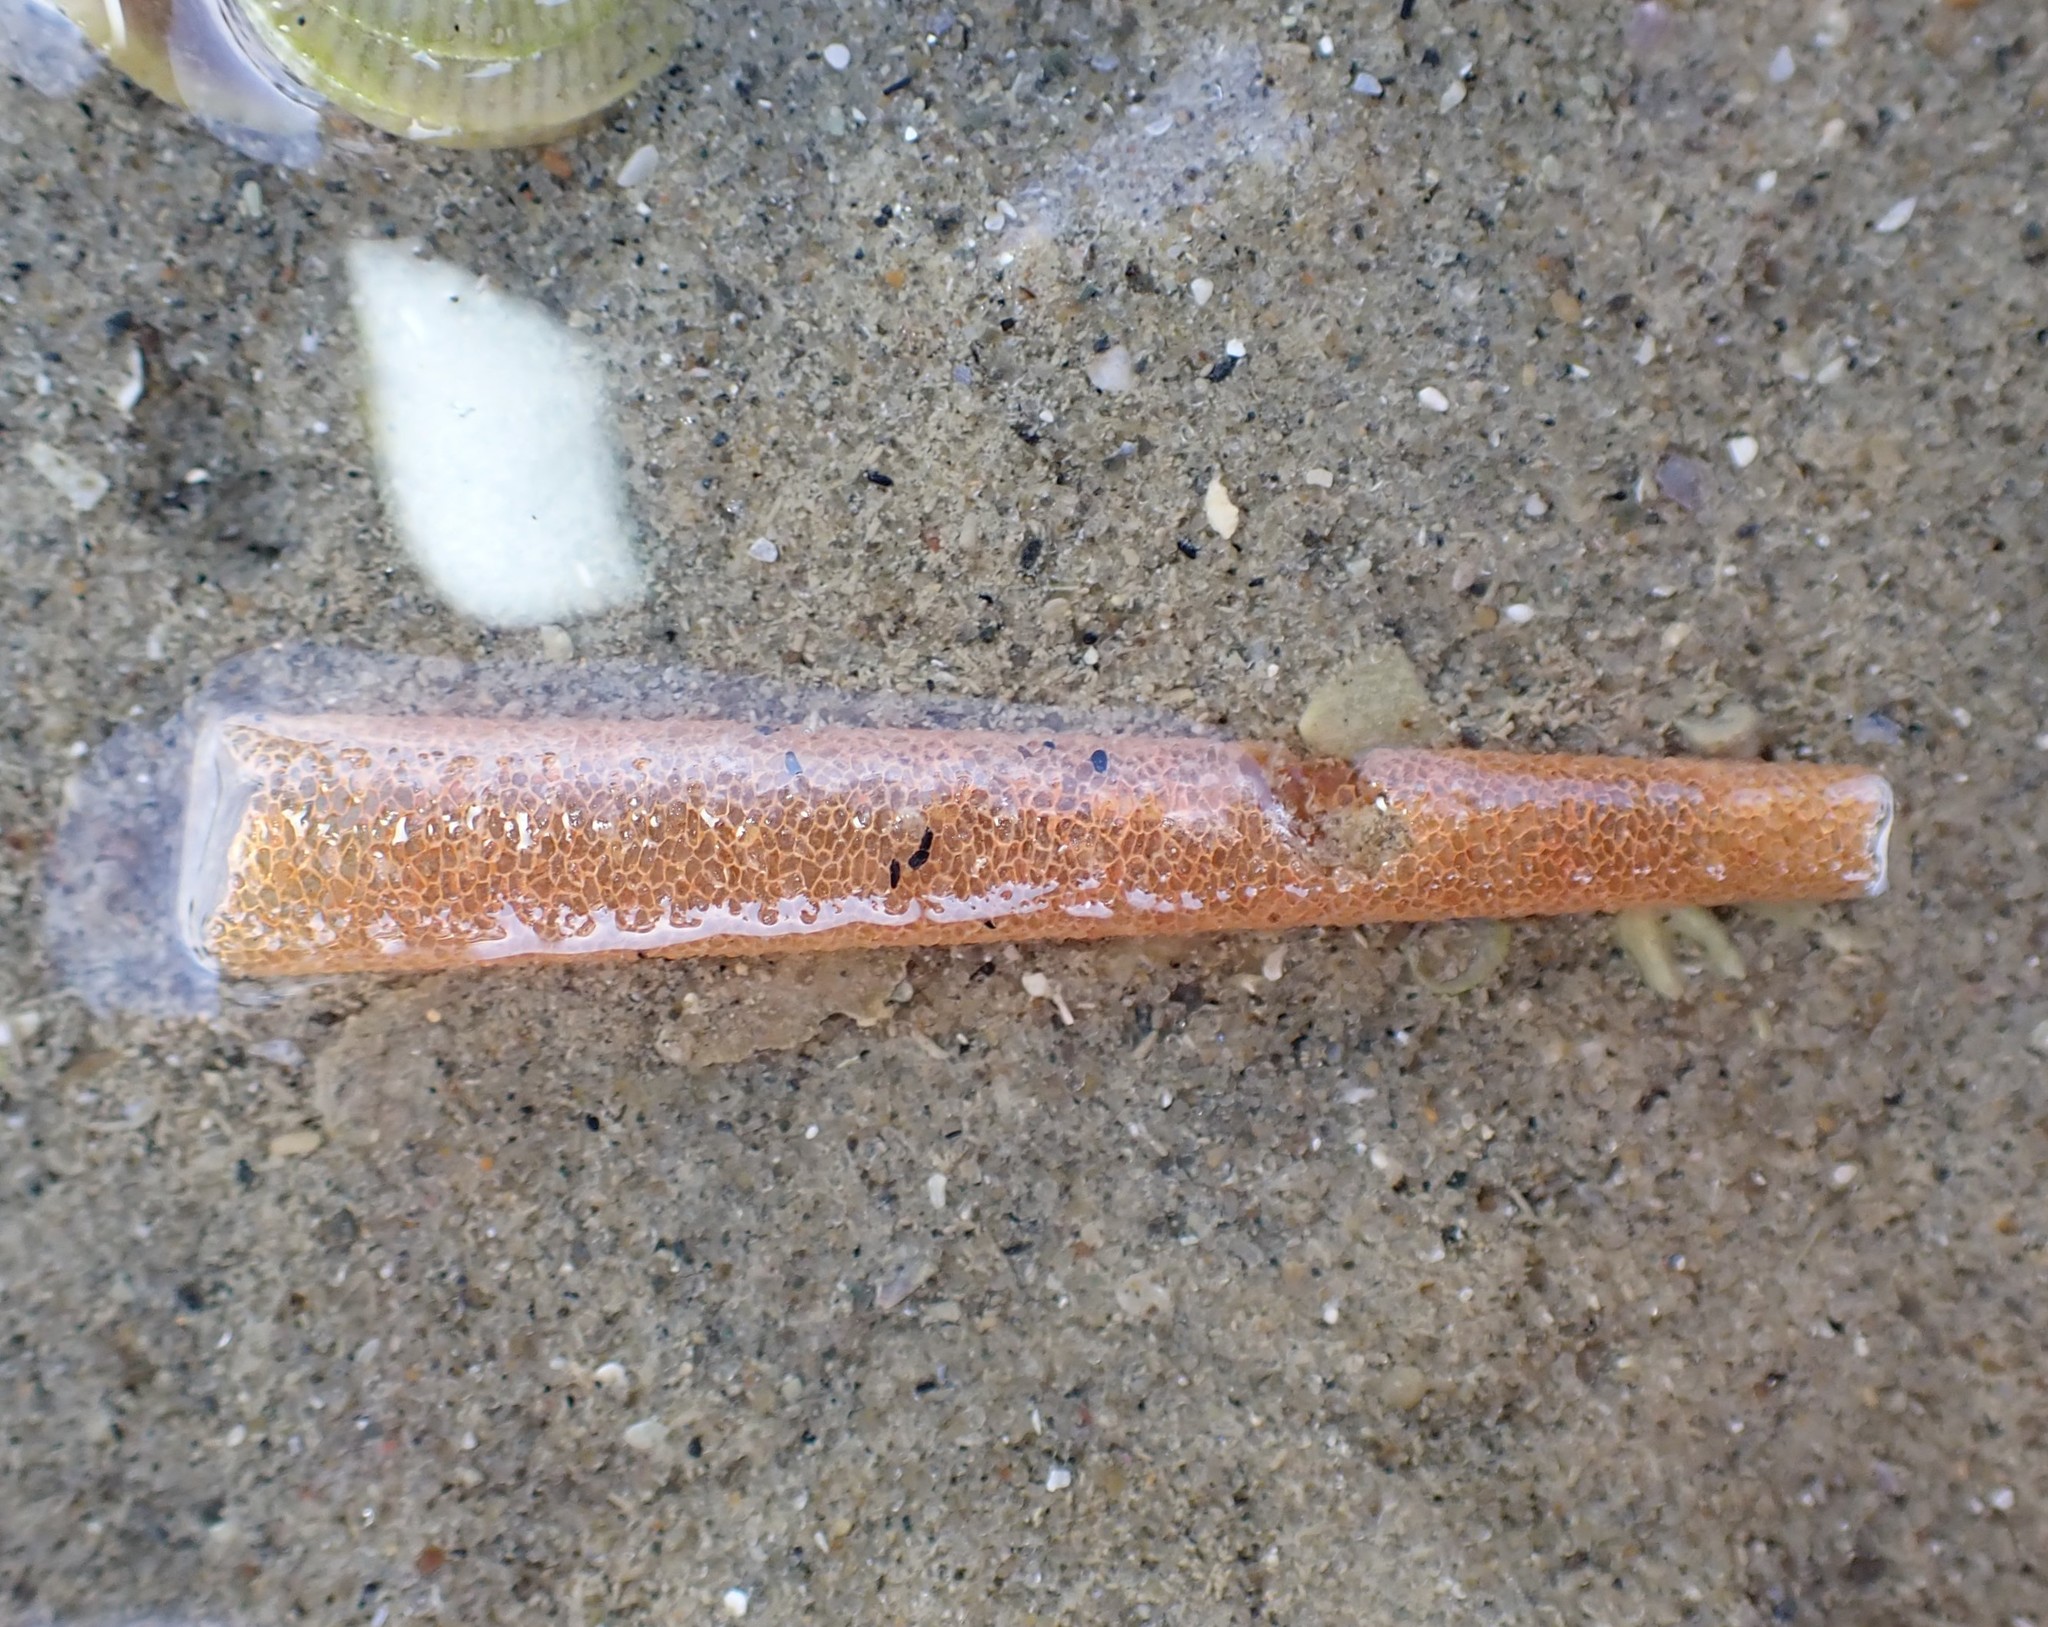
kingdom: Animalia
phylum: Annelida
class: Polychaeta
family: Pectinariidae
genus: Lagis
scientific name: Lagis australis
